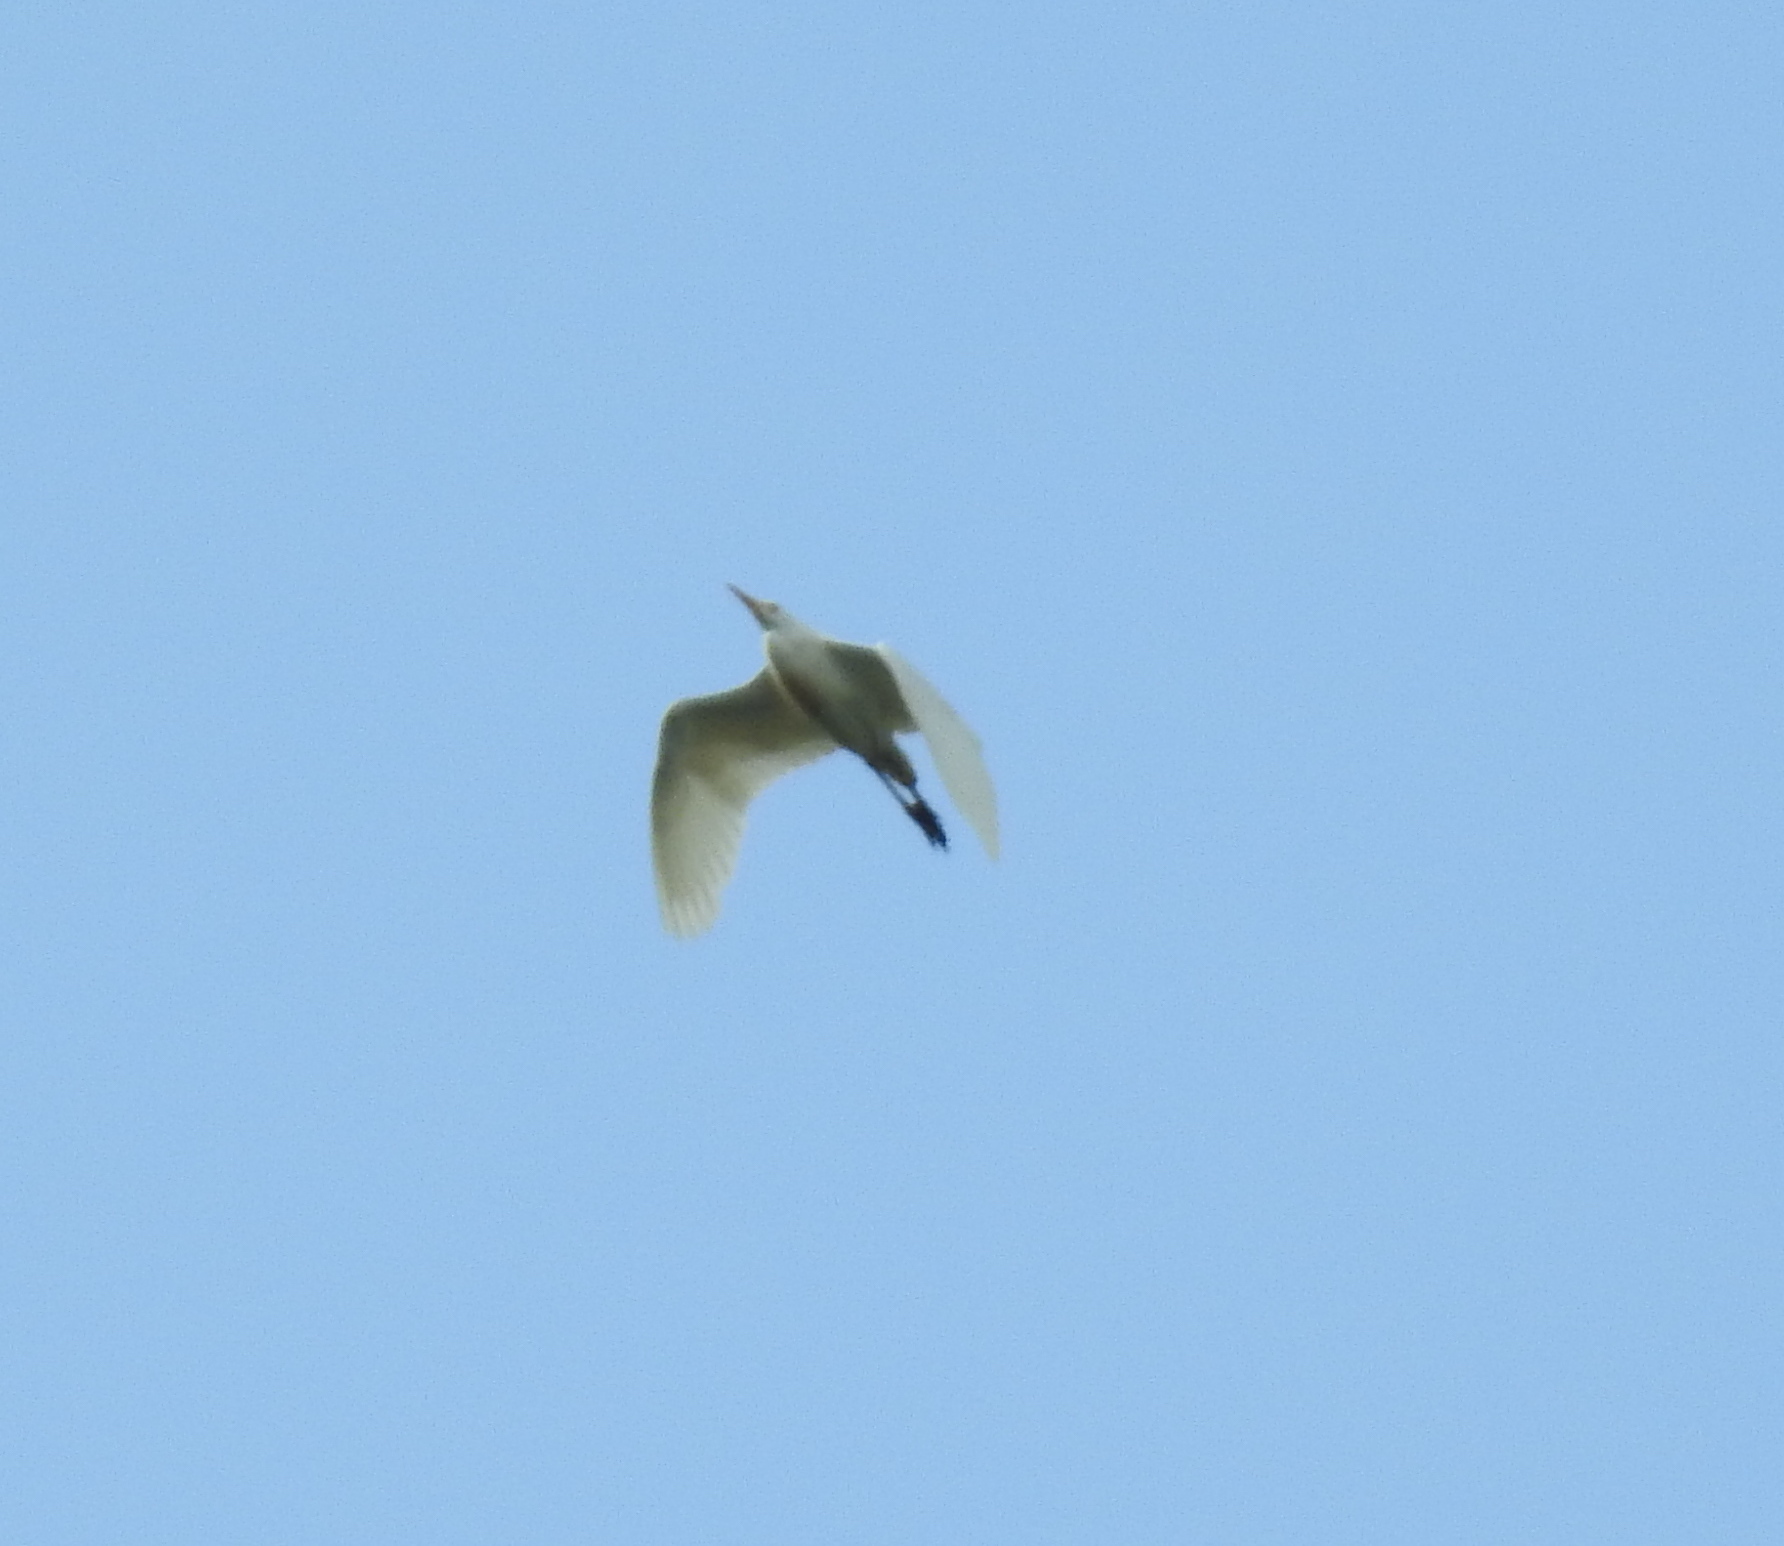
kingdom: Animalia
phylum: Chordata
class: Aves
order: Pelecaniformes
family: Ardeidae
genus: Bubulcus
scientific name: Bubulcus ibis
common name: Cattle egret
